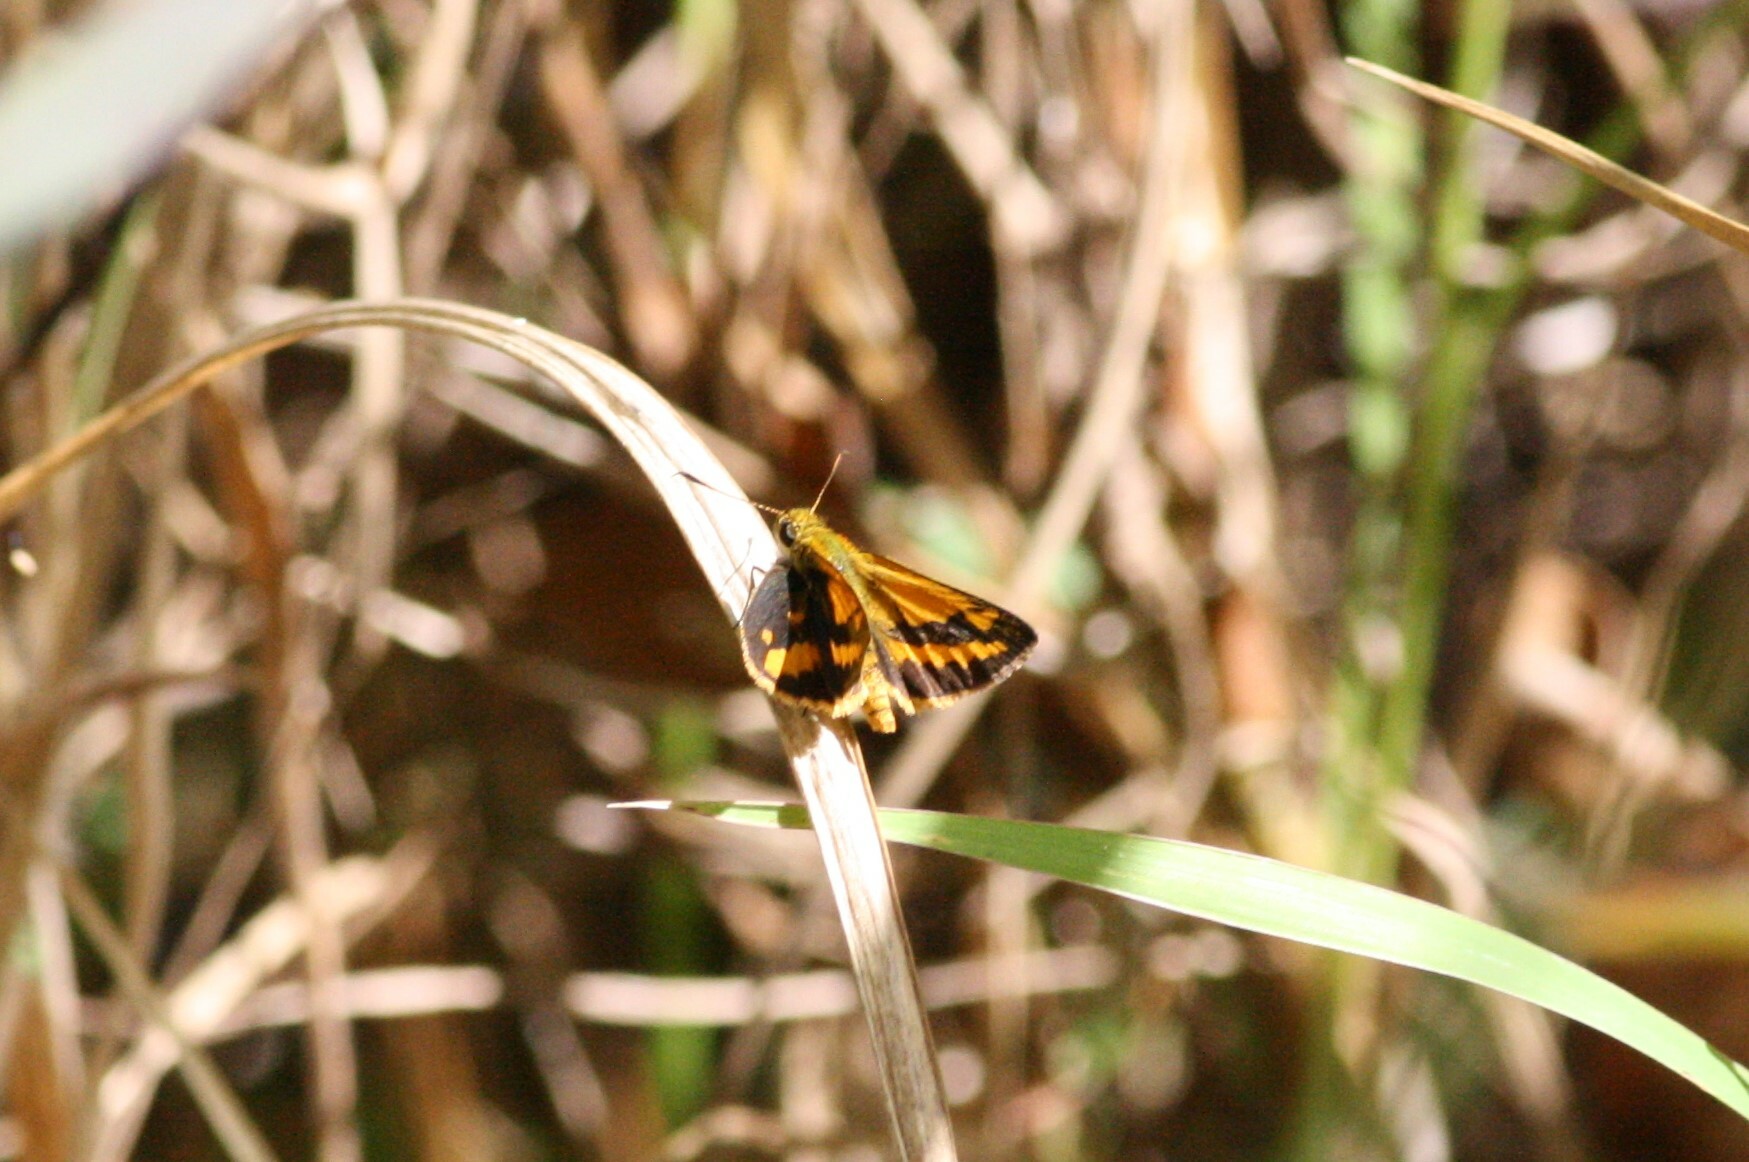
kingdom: Animalia
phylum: Arthropoda
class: Insecta
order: Lepidoptera
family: Hesperiidae
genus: Suniana
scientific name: Suniana sunias
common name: Wide-brand grass-dart
